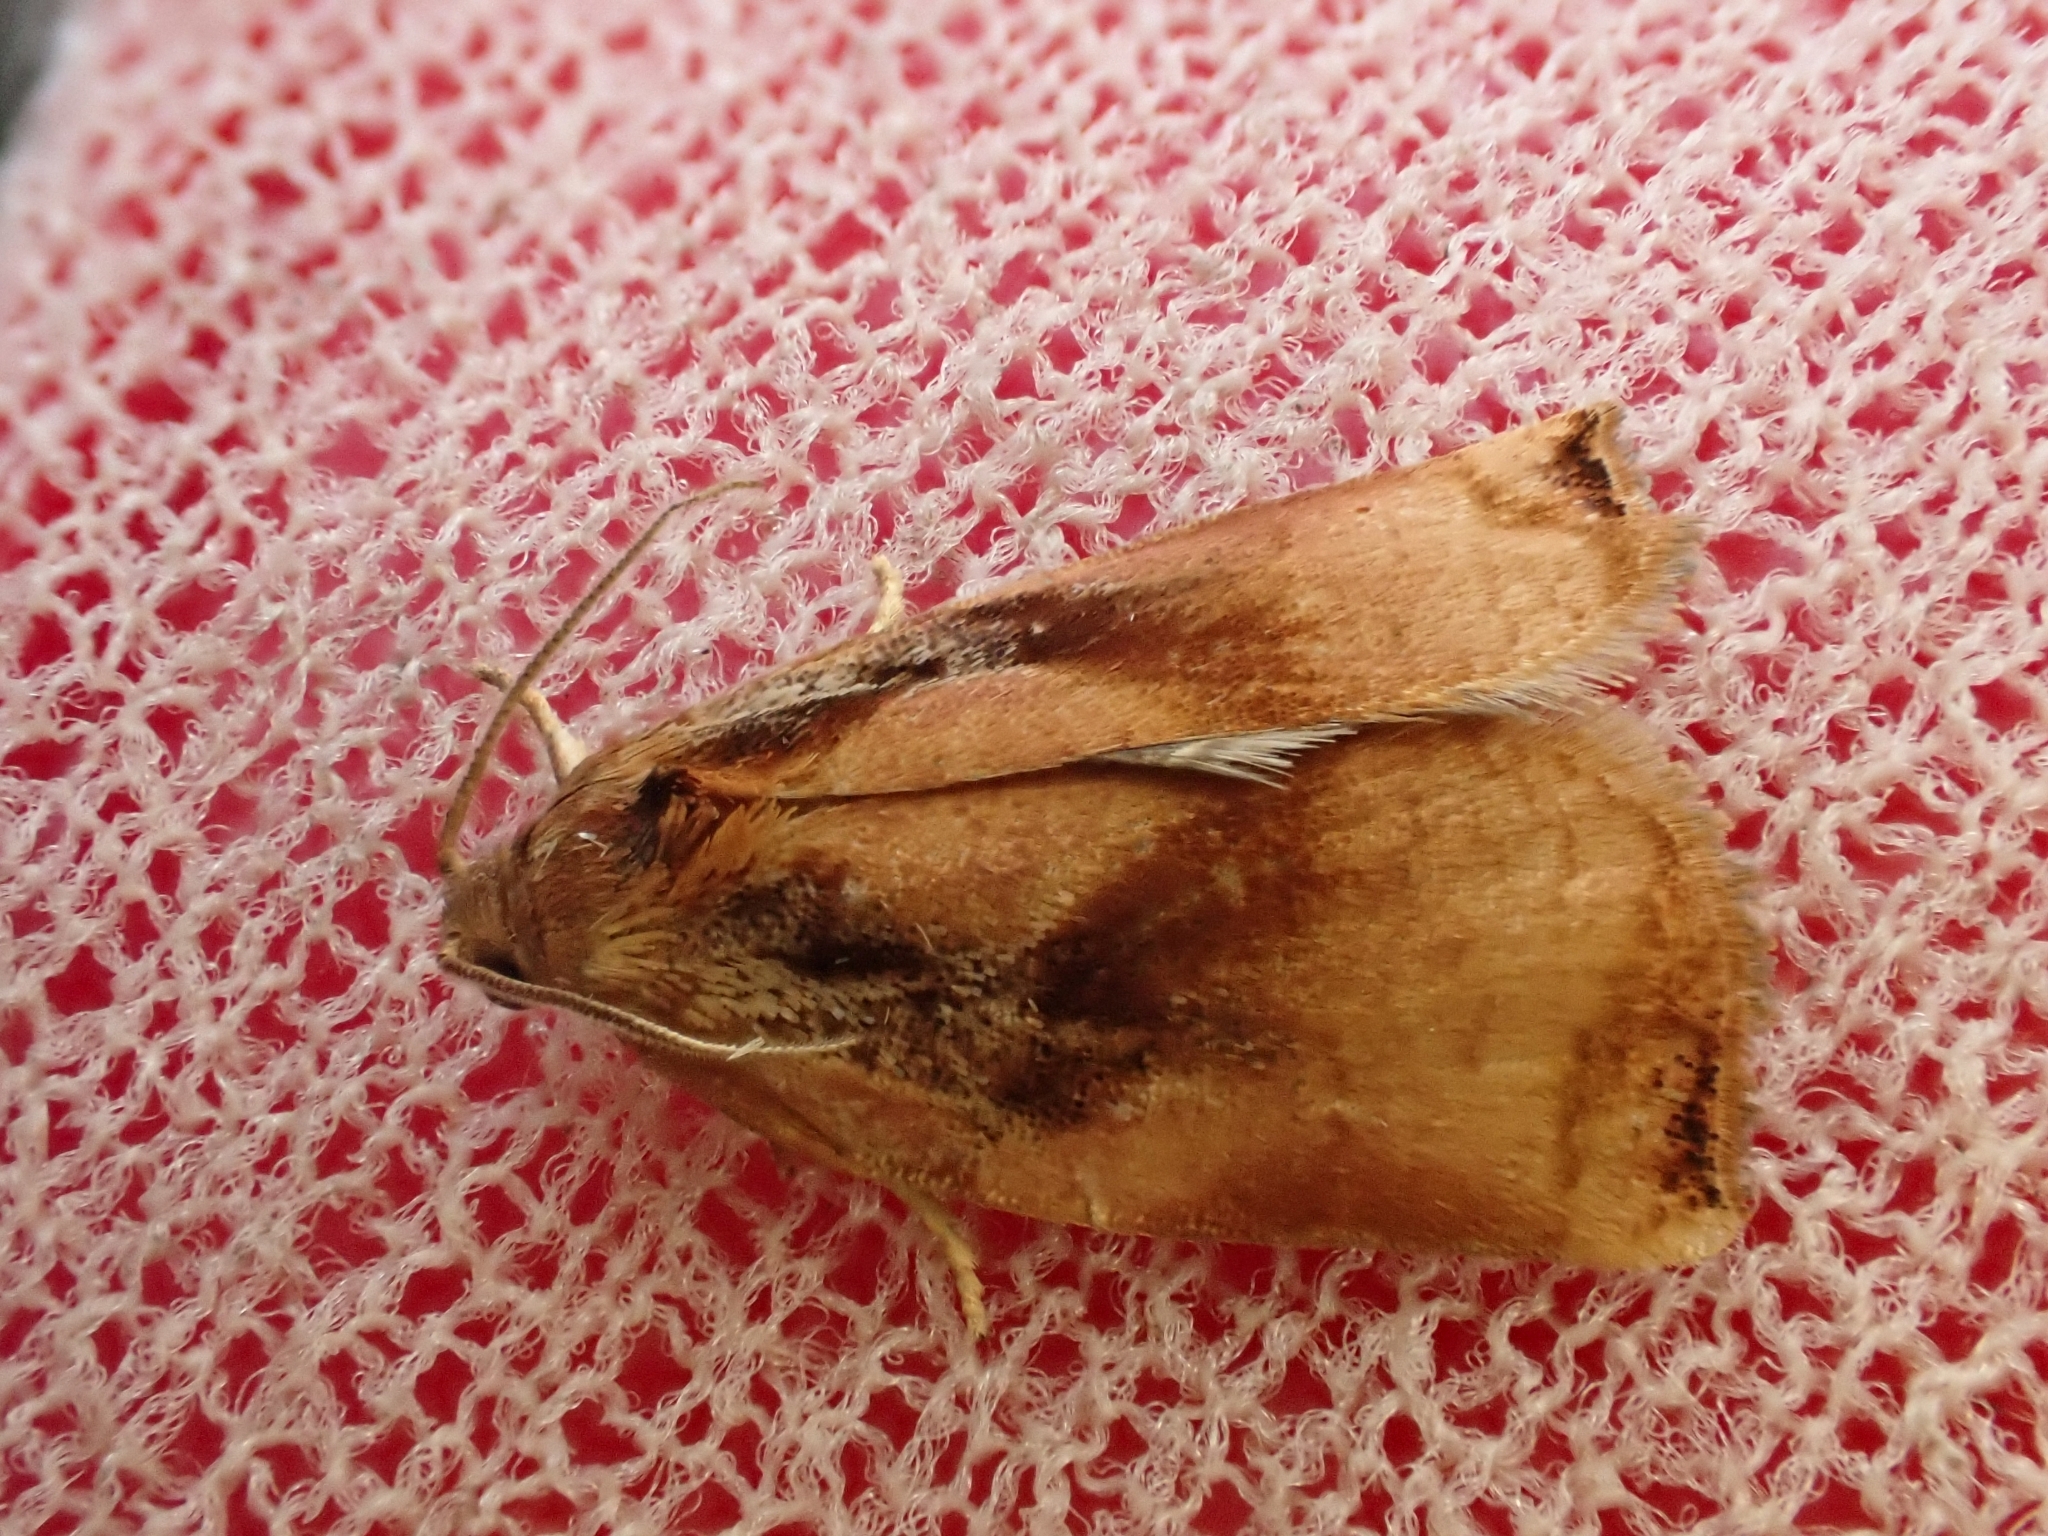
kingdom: Animalia
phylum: Arthropoda
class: Insecta
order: Lepidoptera
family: Tortricidae
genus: Archips
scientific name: Archips podana
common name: Large fruit-tree tortrix
